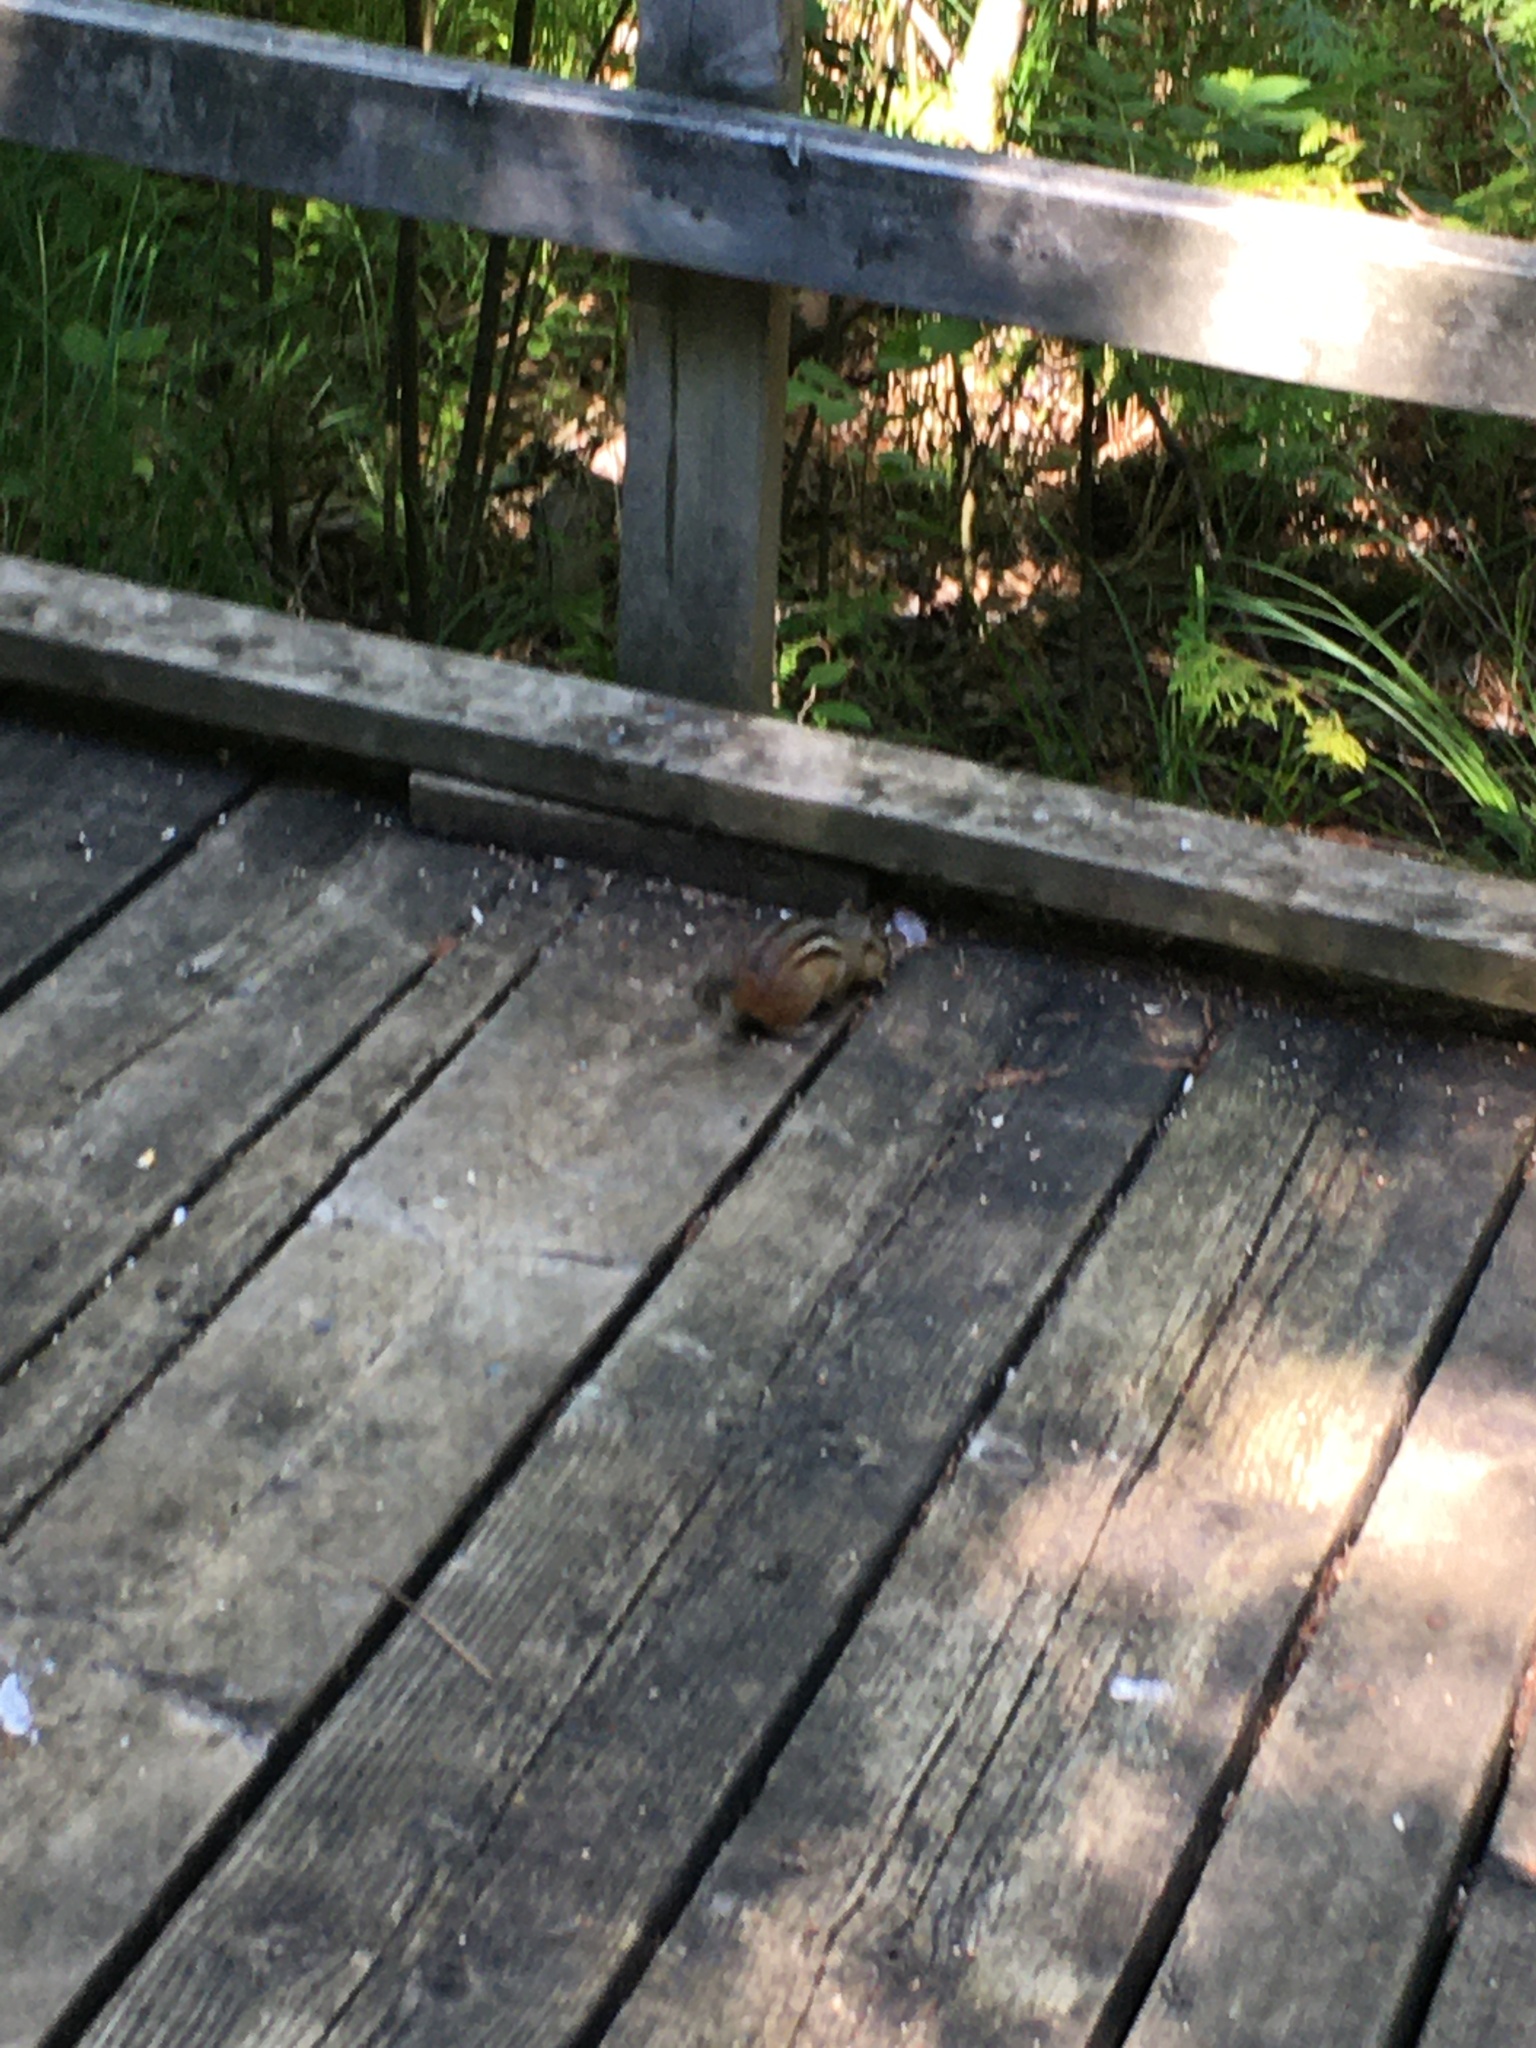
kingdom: Animalia
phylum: Chordata
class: Mammalia
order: Rodentia
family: Sciuridae
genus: Tamias
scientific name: Tamias striatus
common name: Eastern chipmunk
